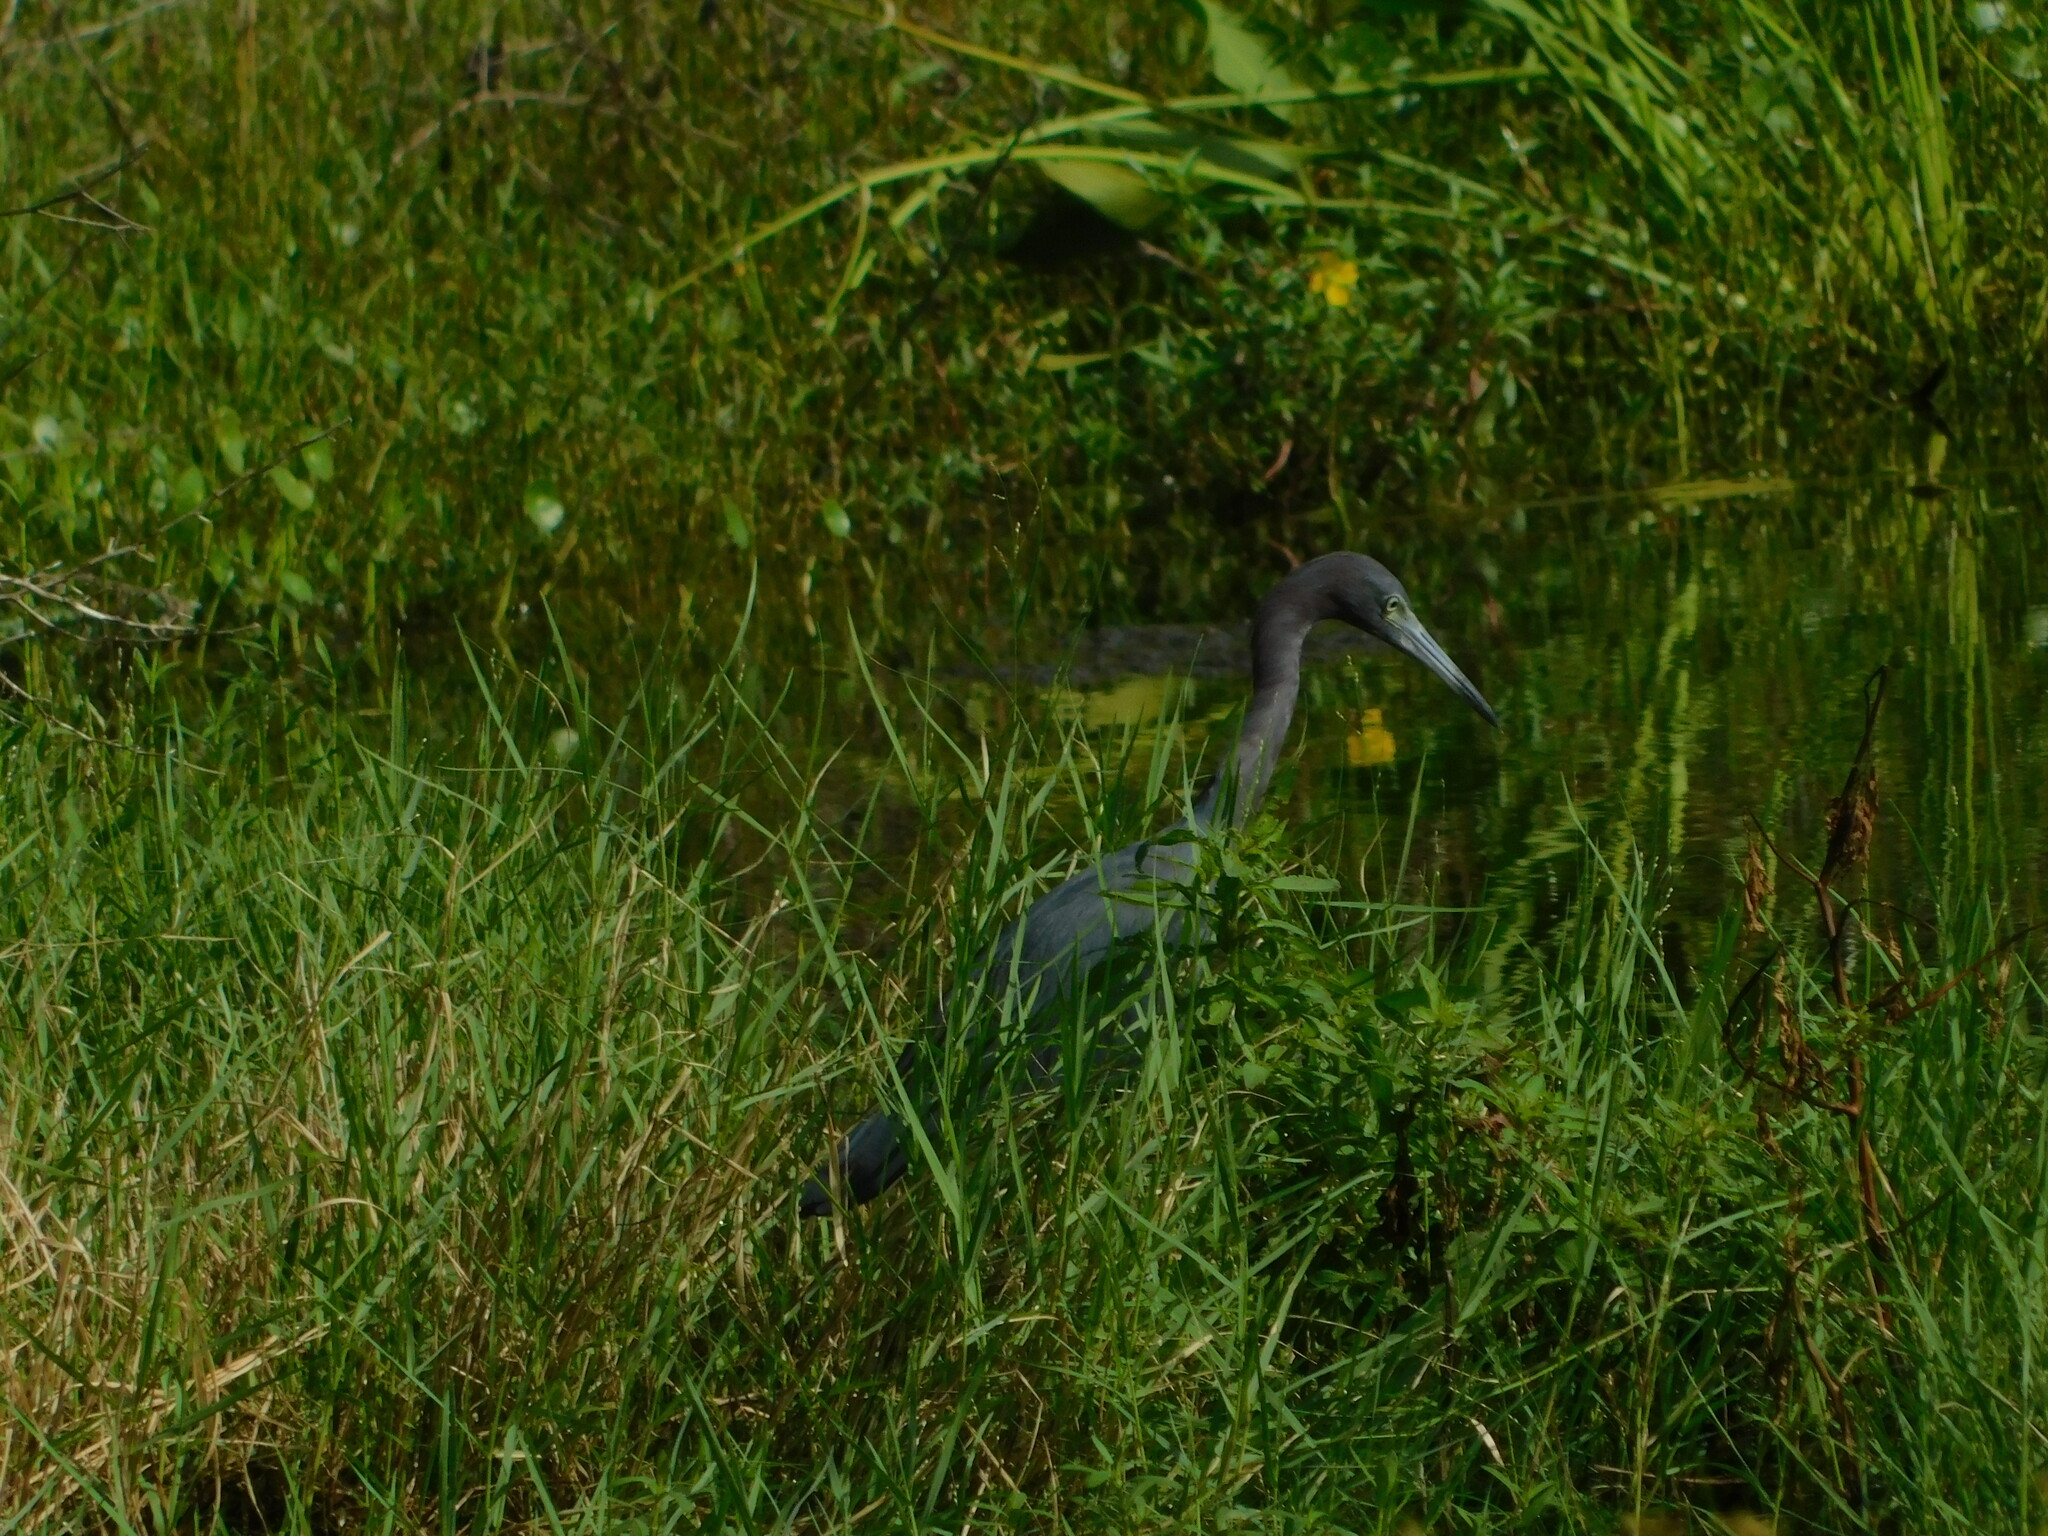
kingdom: Animalia
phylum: Chordata
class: Aves
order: Pelecaniformes
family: Ardeidae
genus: Egretta
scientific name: Egretta caerulea
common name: Little blue heron
